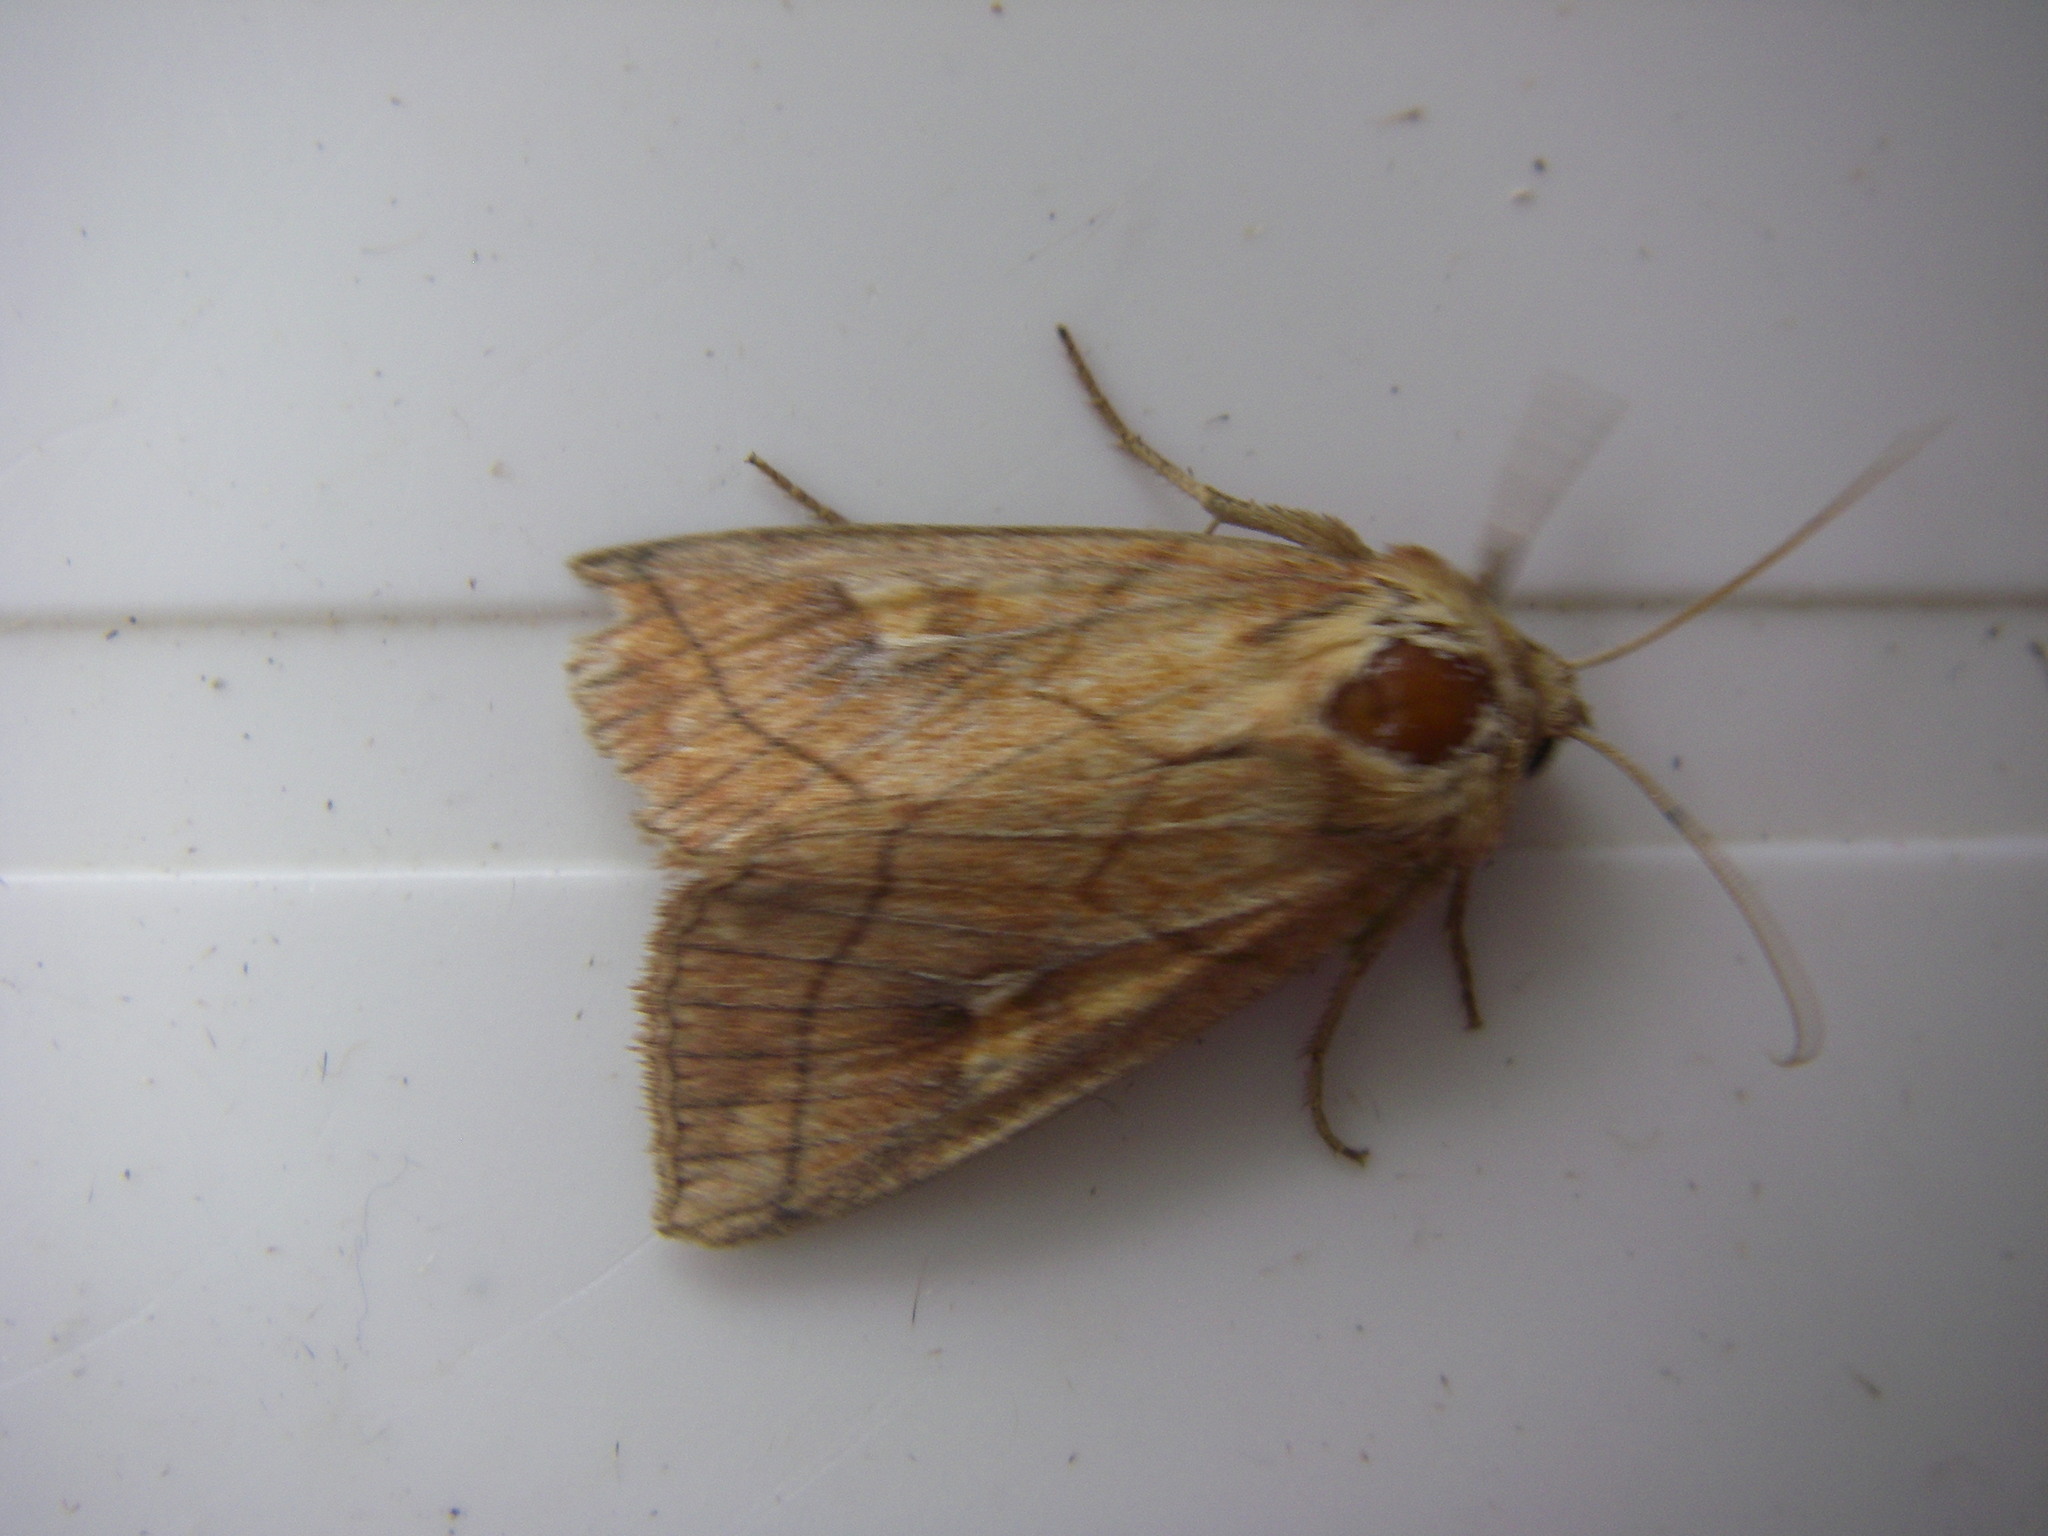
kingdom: Animalia
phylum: Arthropoda
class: Insecta
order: Lepidoptera
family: Noctuidae
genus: Mythimna
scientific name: Mythimna conigera
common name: Brown-line bright-eye
